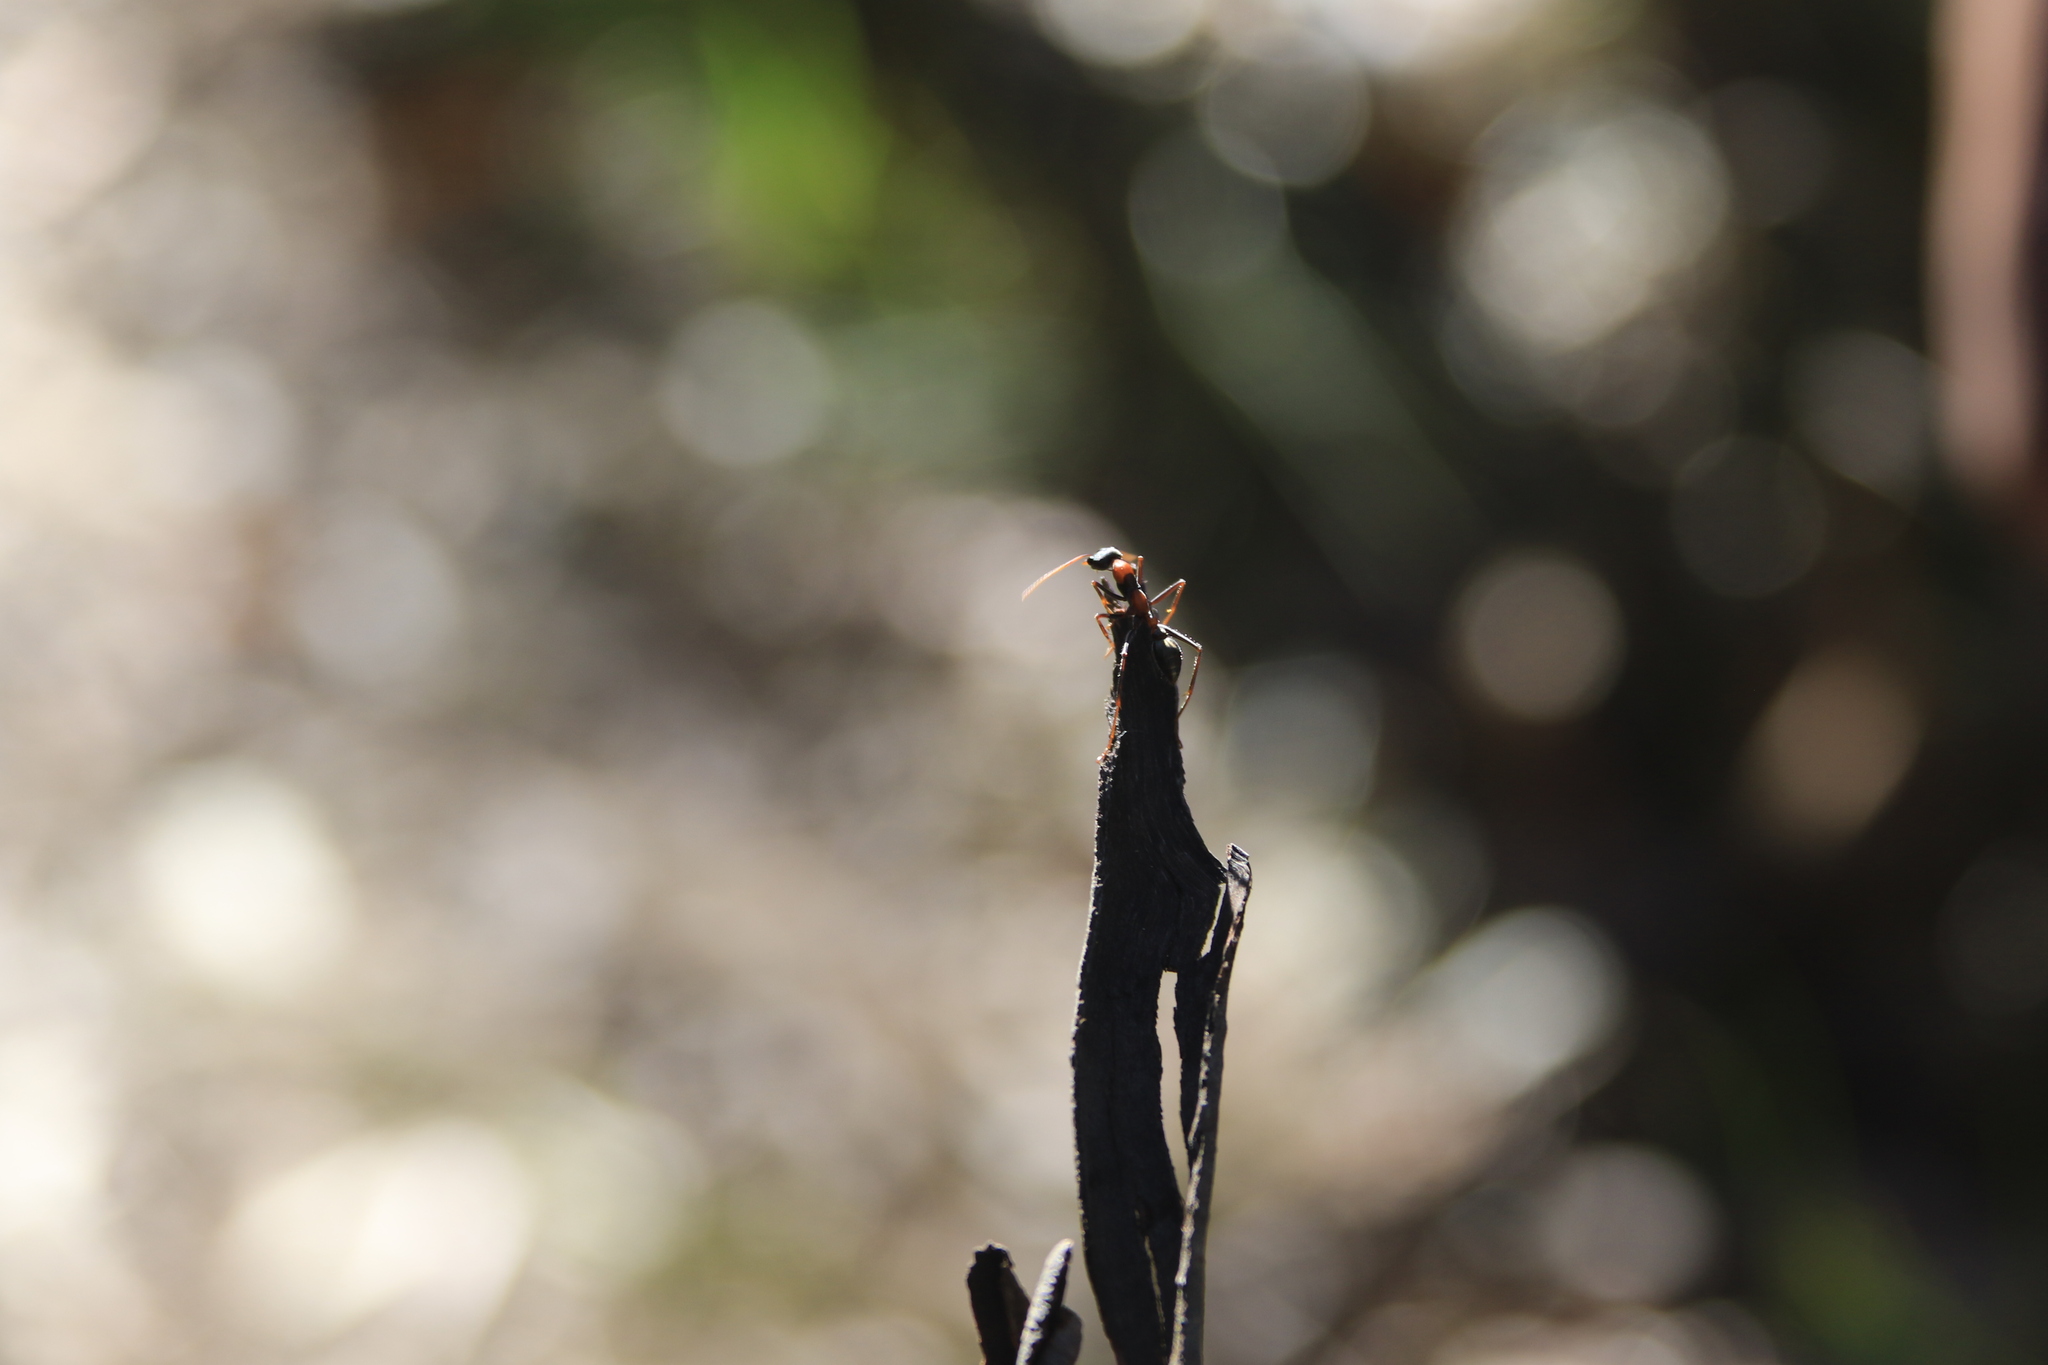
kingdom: Animalia
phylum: Arthropoda
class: Insecta
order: Hymenoptera
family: Formicidae
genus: Myrmecia
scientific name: Myrmecia nigrocincta
